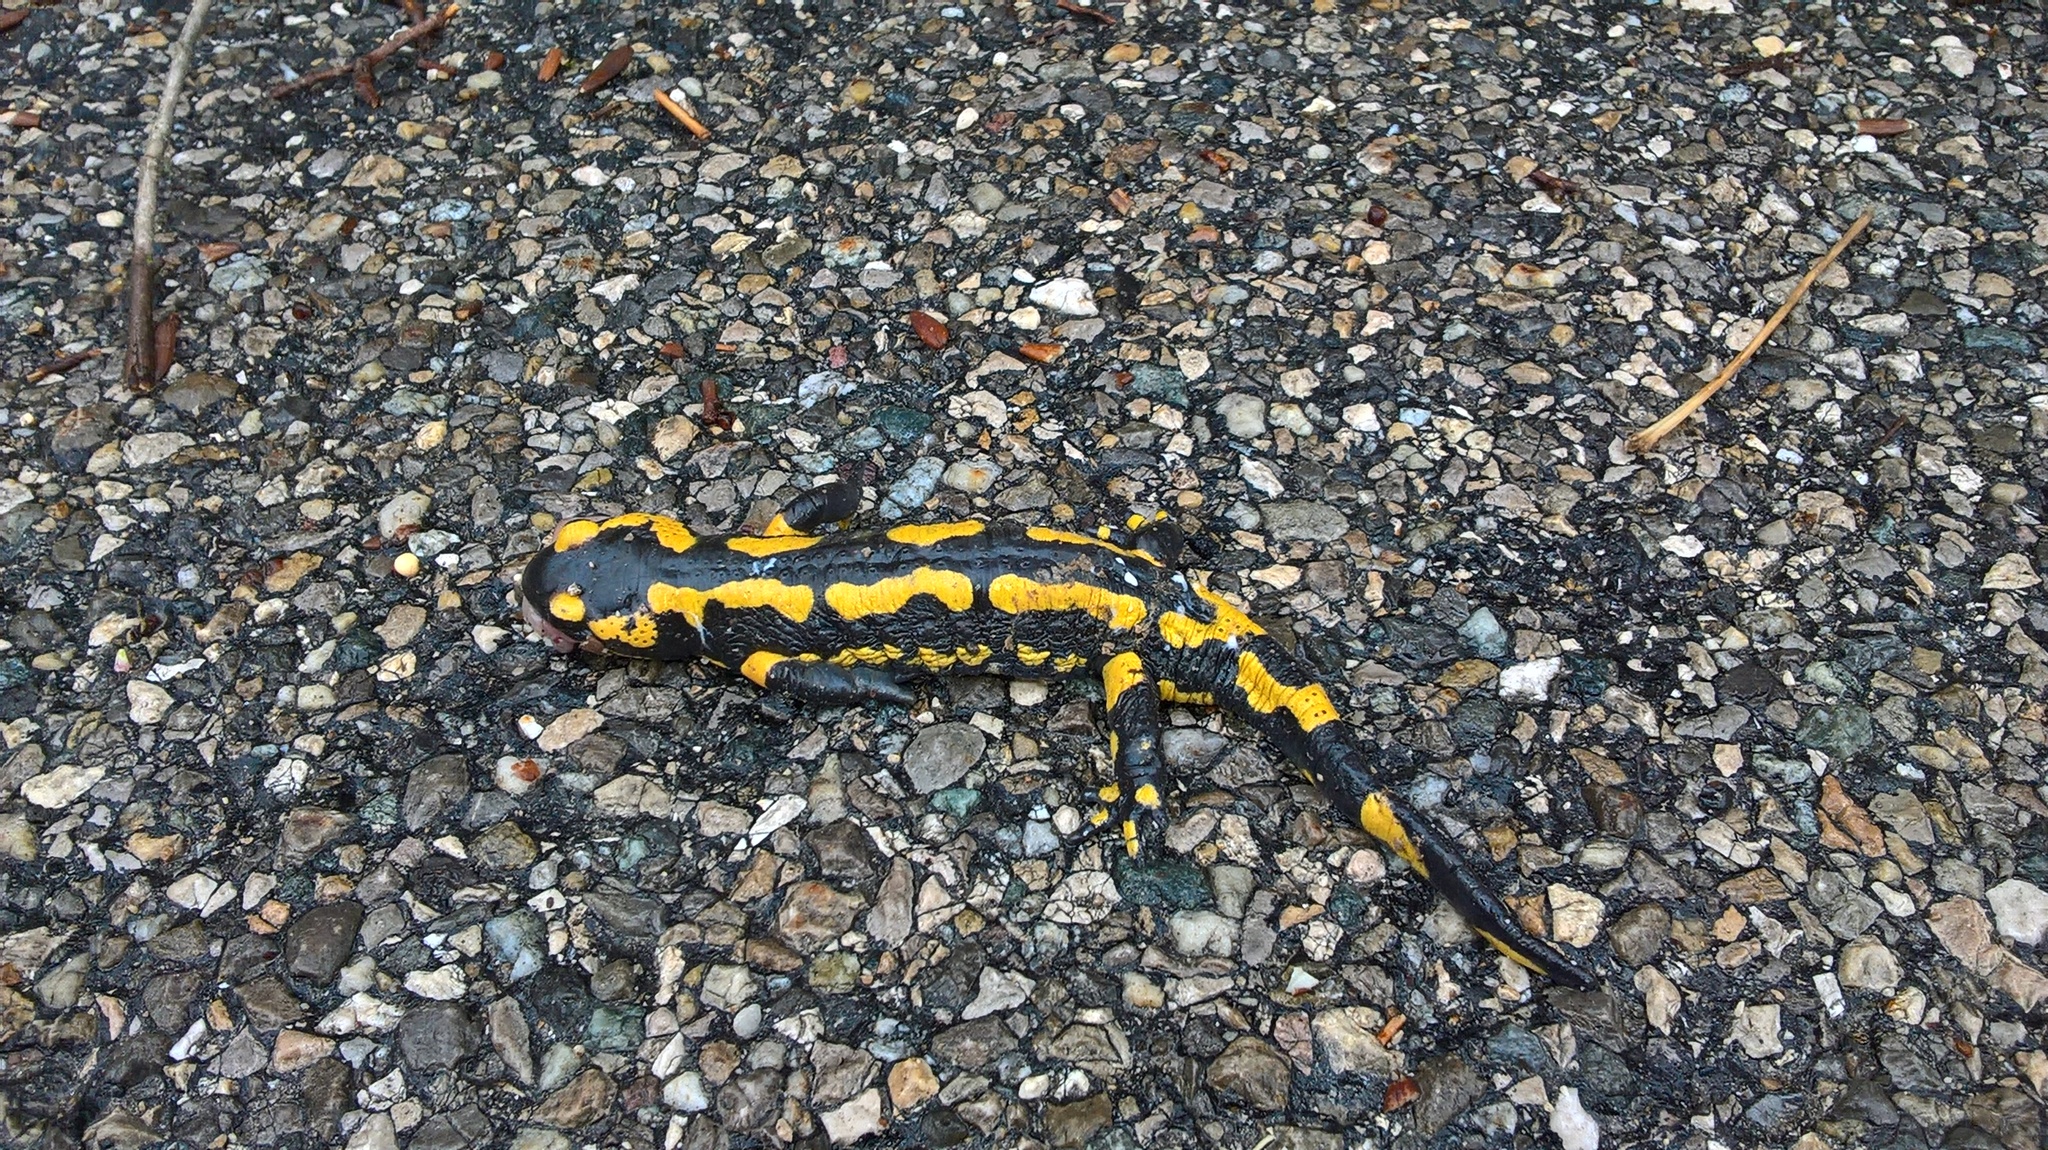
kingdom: Animalia
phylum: Chordata
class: Amphibia
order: Caudata
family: Salamandridae
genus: Salamandra
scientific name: Salamandra salamandra
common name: Fire salamander
